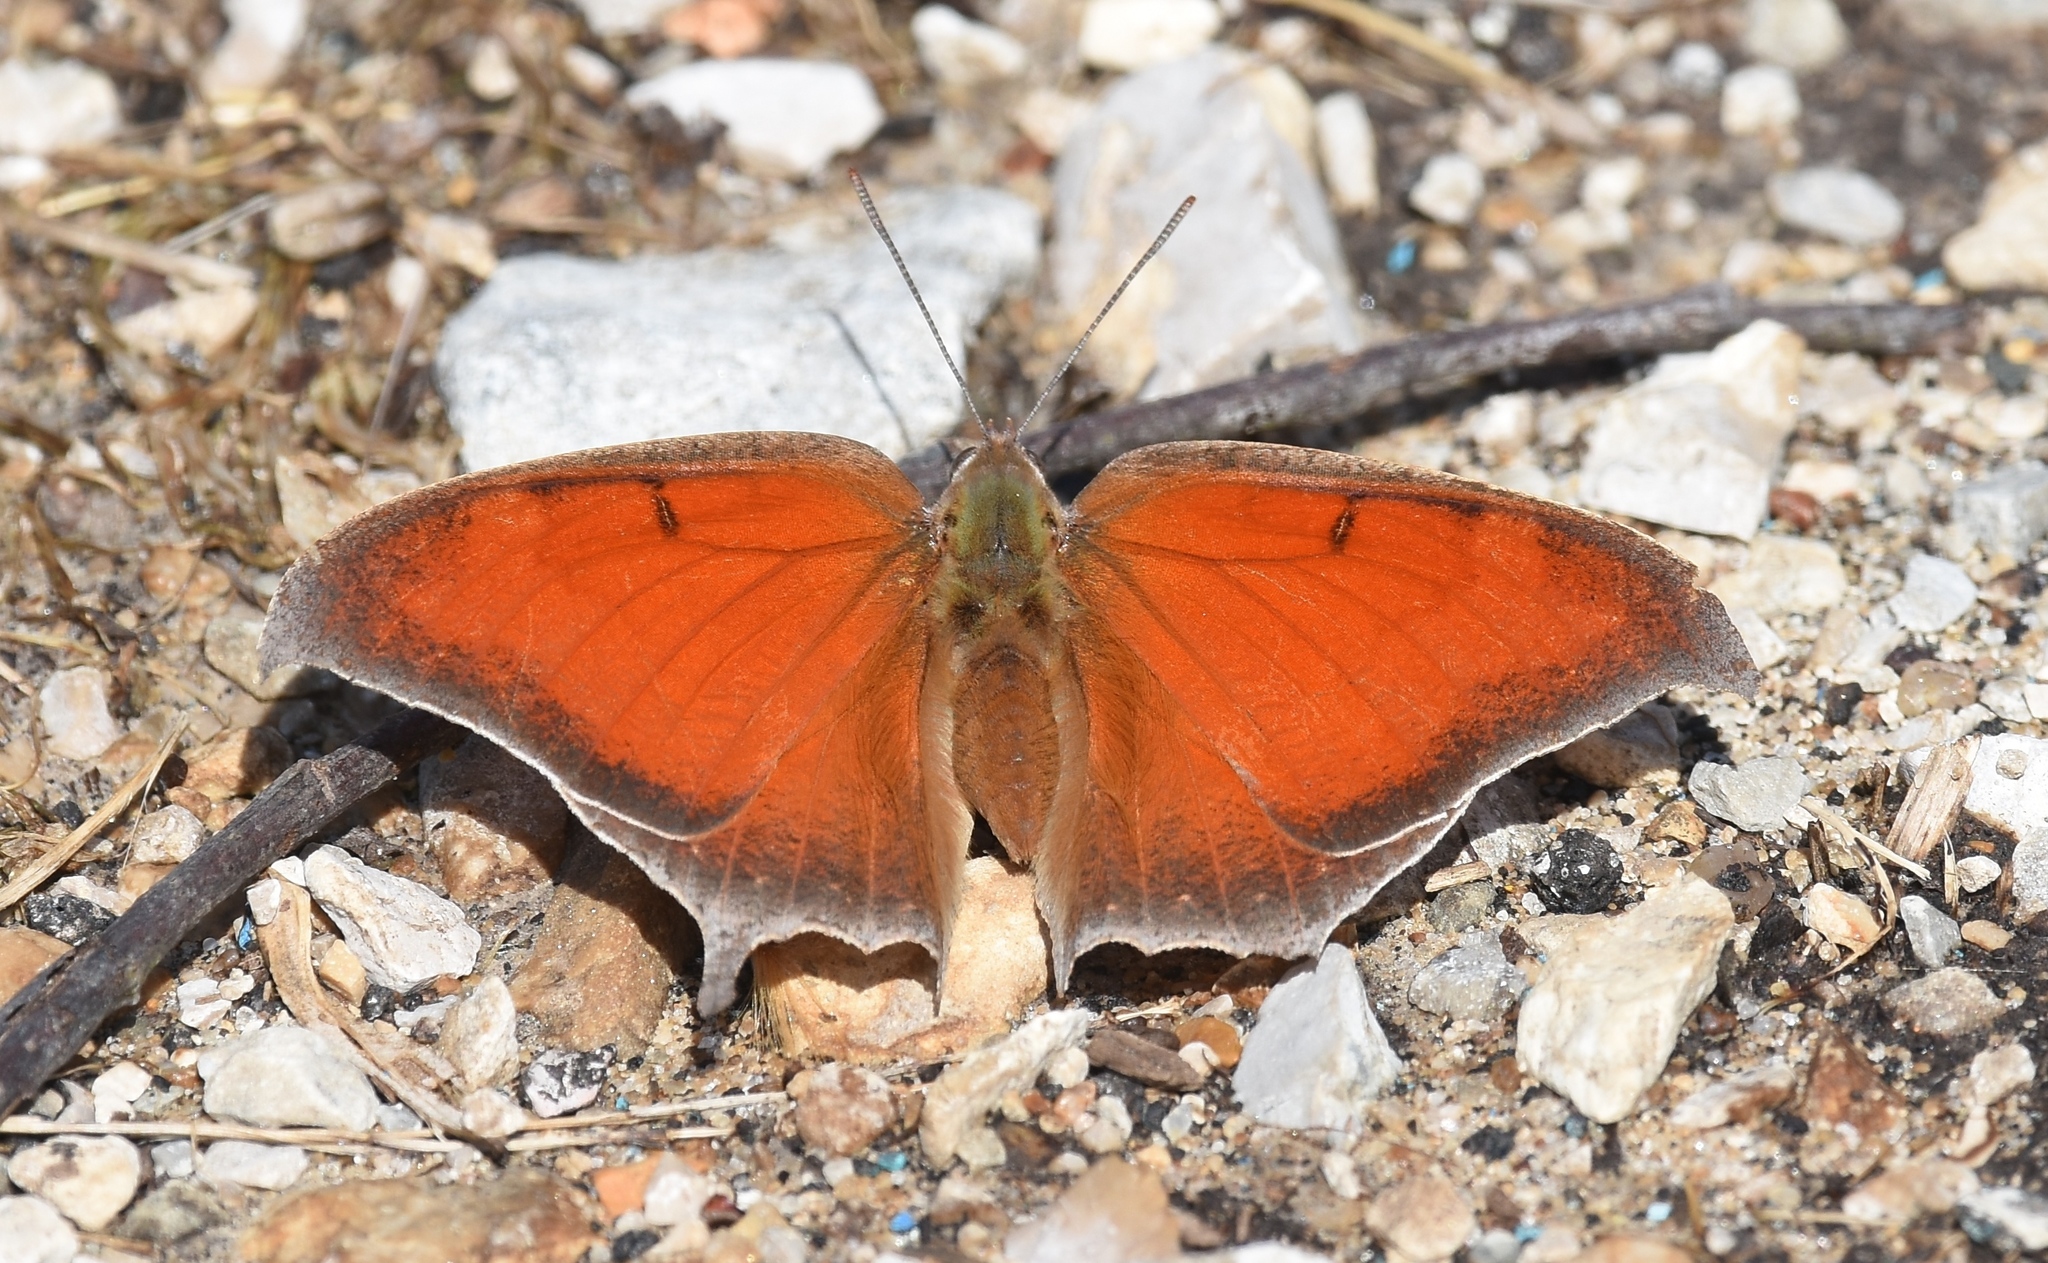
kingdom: Animalia
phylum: Arthropoda
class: Insecta
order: Lepidoptera
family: Nymphalidae
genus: Anaea
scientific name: Anaea andria
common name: Goatweed leafwing
